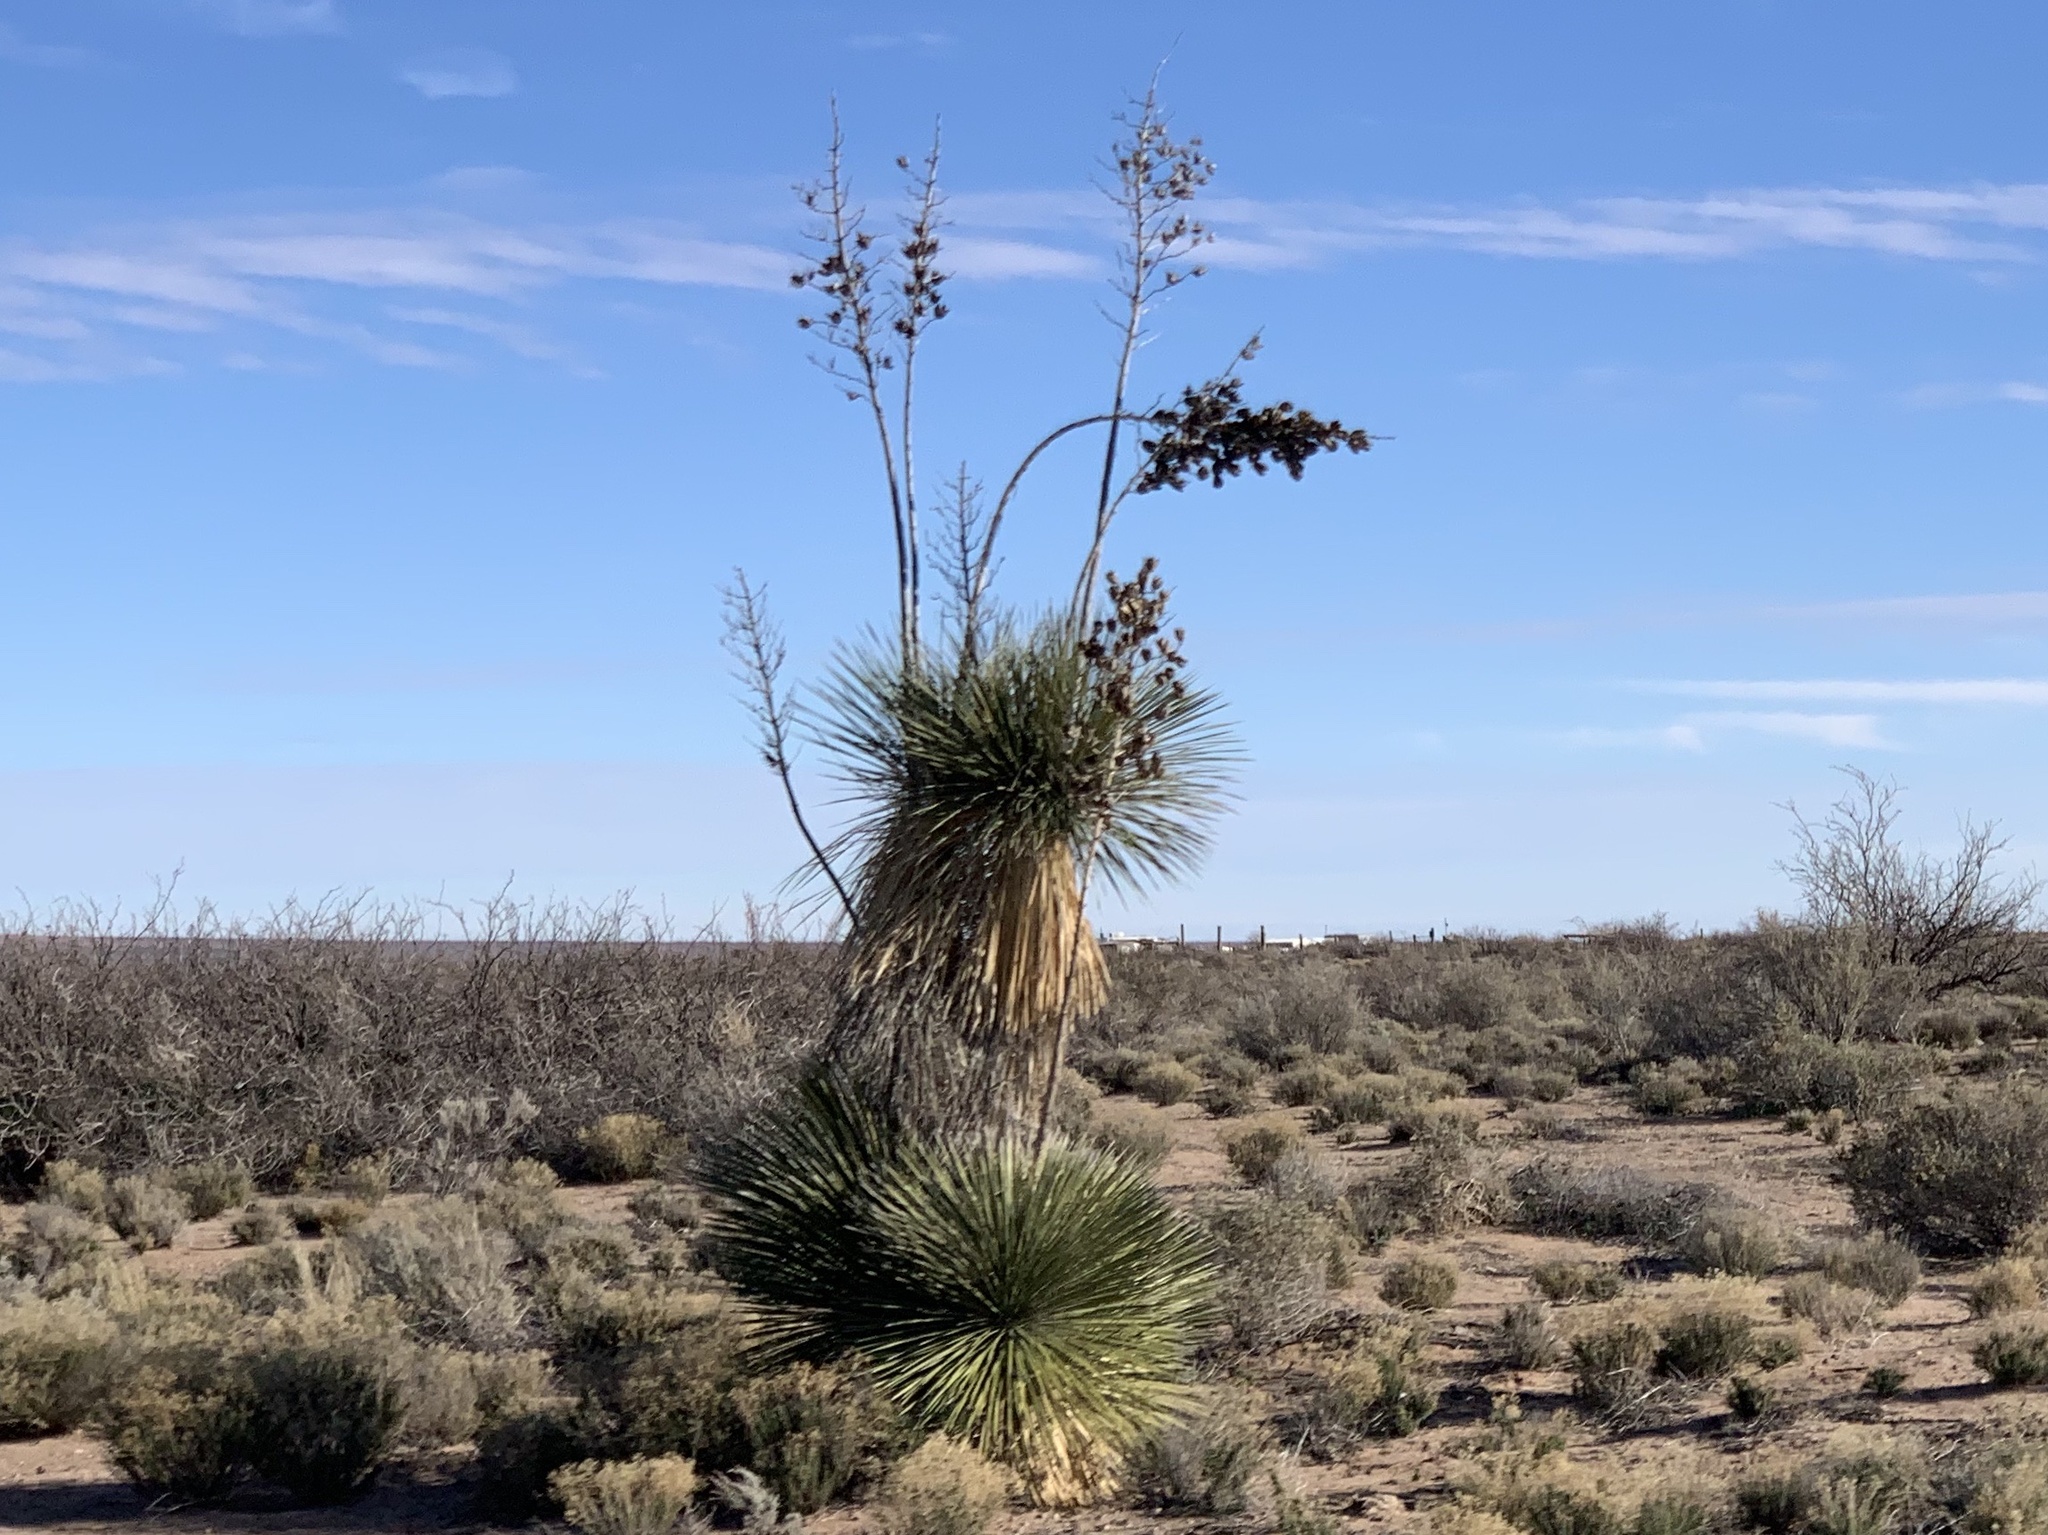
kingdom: Plantae
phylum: Tracheophyta
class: Liliopsida
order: Asparagales
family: Asparagaceae
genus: Yucca
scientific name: Yucca elata
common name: Palmella
